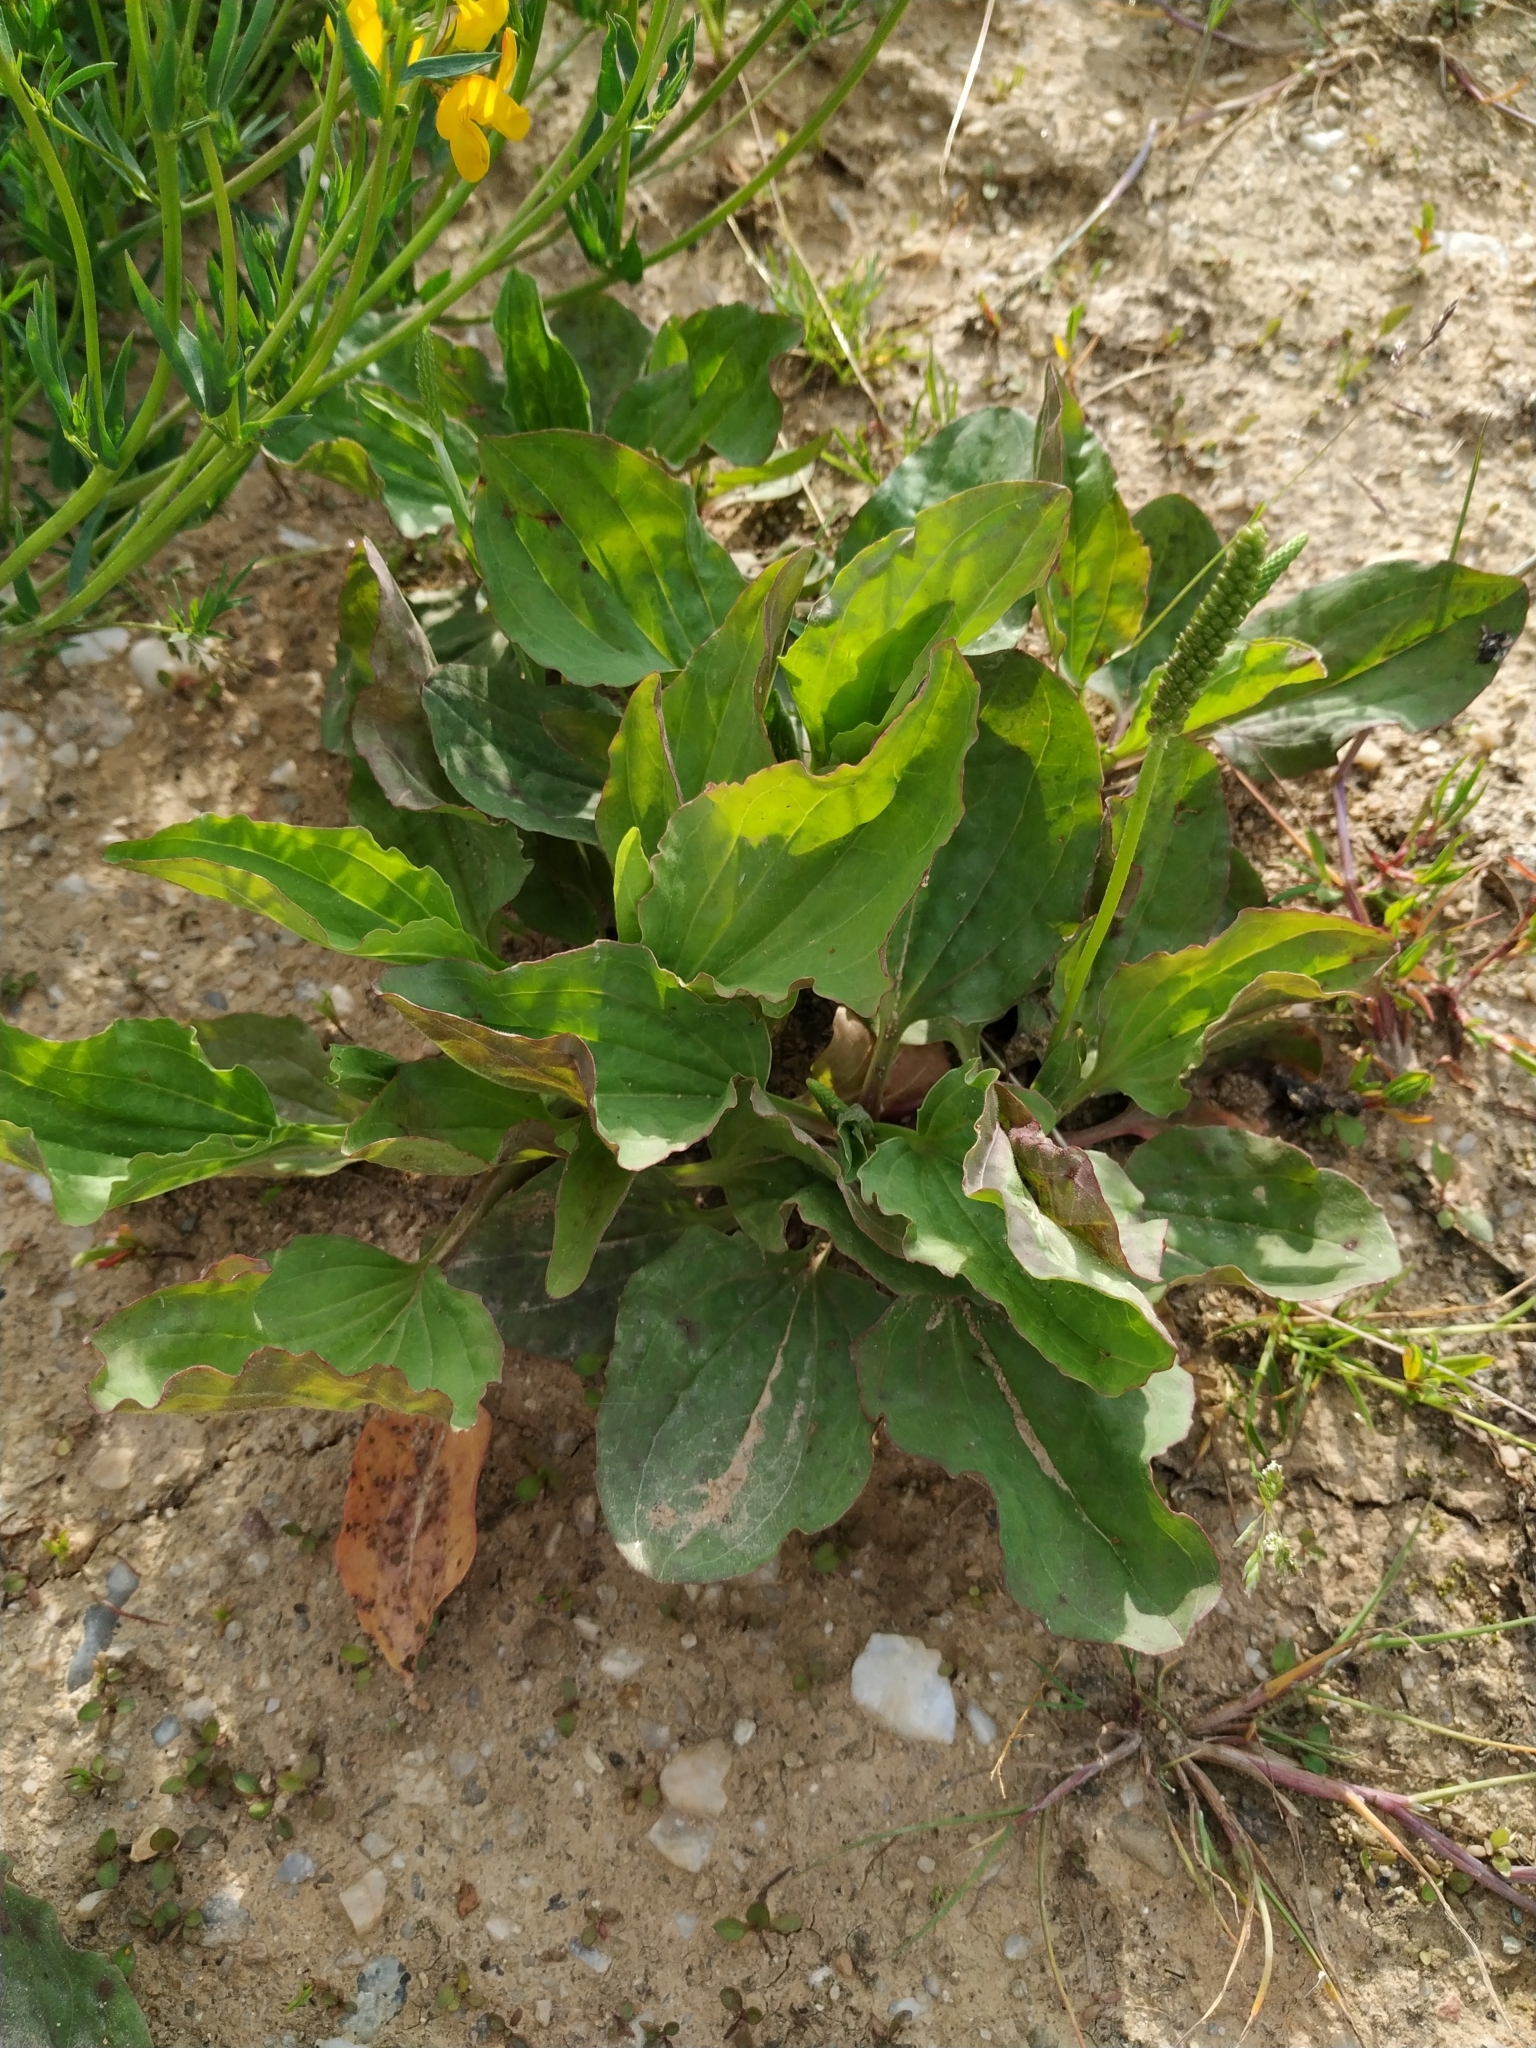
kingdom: Plantae
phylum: Tracheophyta
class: Magnoliopsida
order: Lamiales
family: Plantaginaceae
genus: Plantago
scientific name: Plantago major
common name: Common plantain
